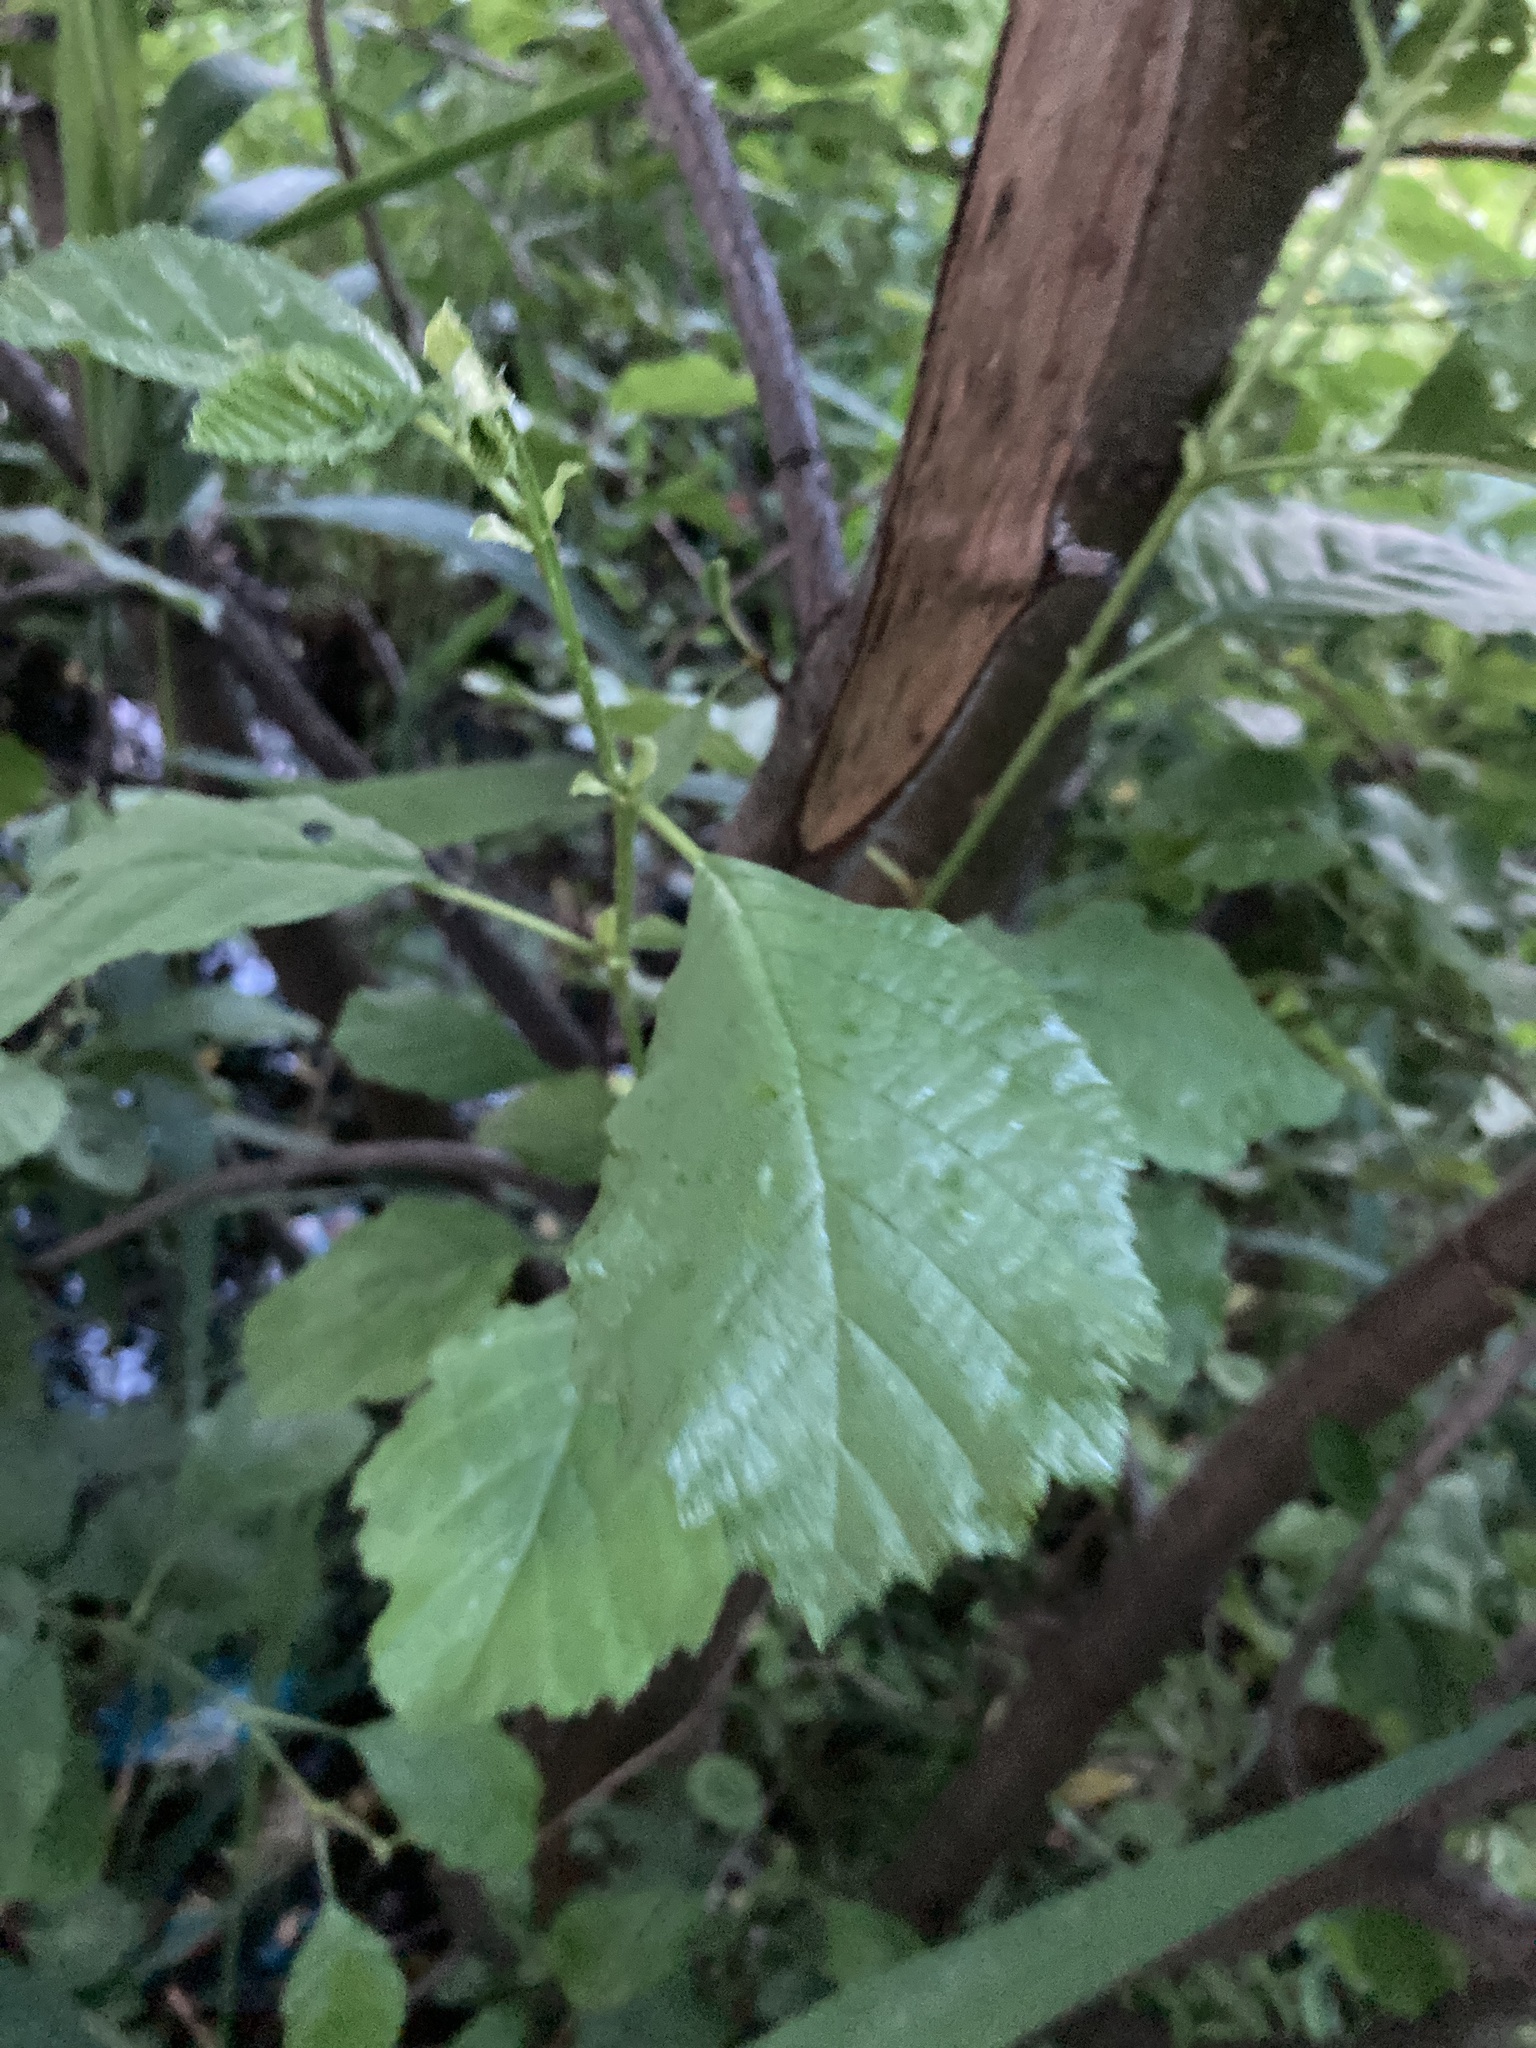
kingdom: Plantae
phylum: Tracheophyta
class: Magnoliopsida
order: Fagales
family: Betulaceae
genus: Alnus
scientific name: Alnus glutinosa
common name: Black alder
